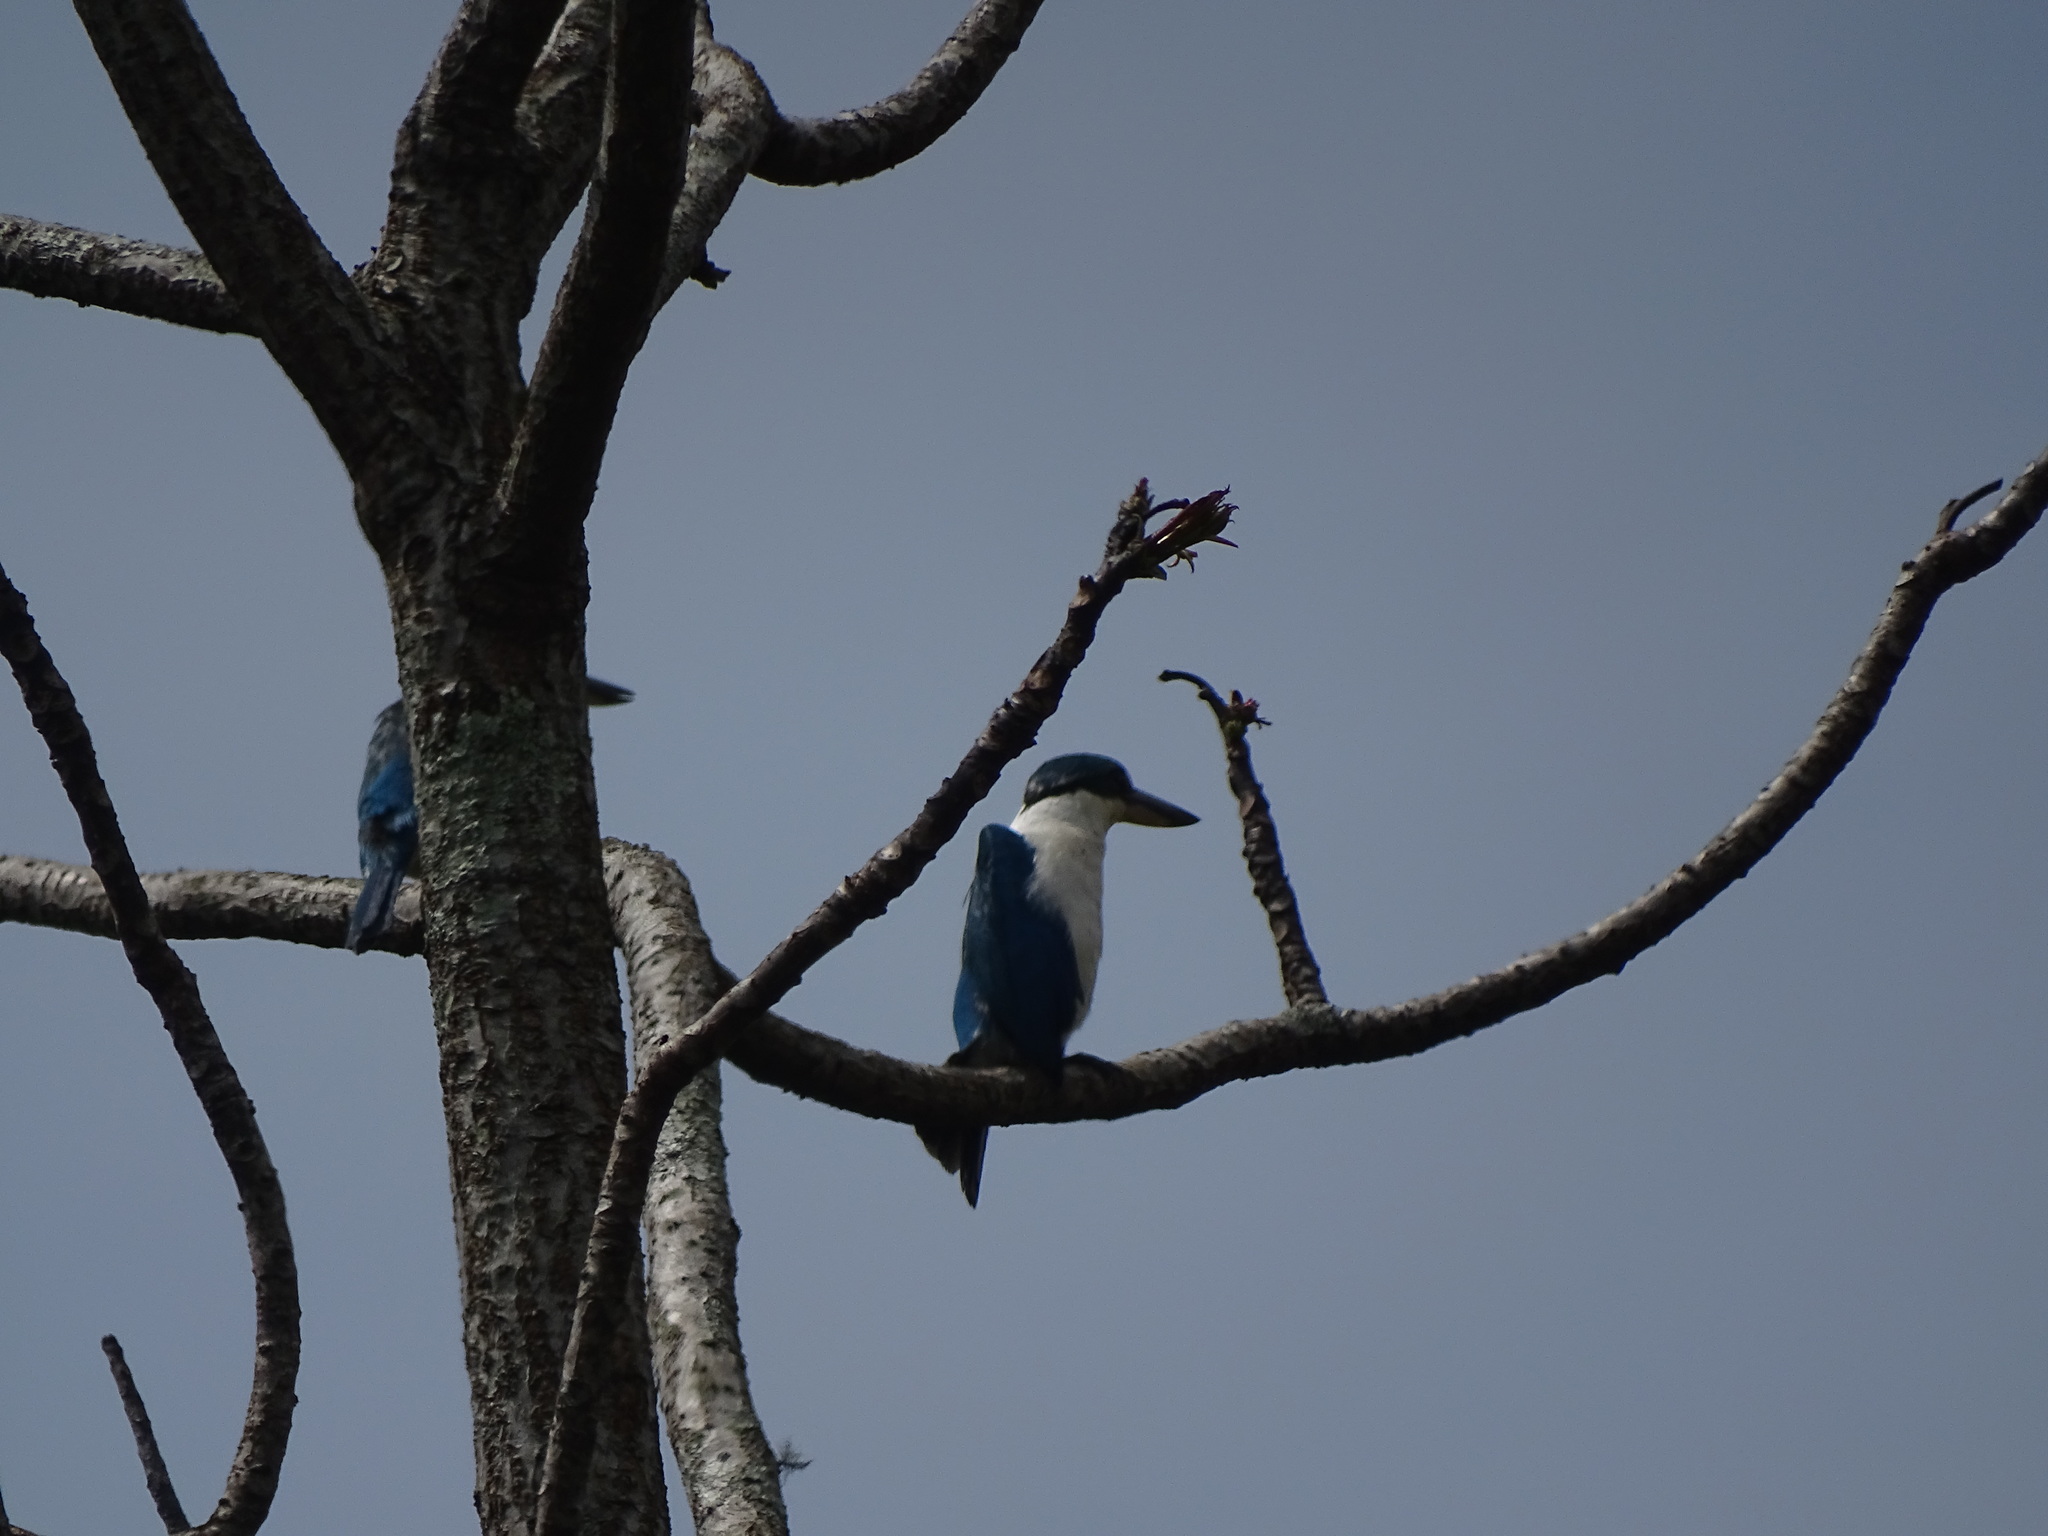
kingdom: Animalia
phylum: Chordata
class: Aves
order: Coraciiformes
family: Alcedinidae
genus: Todiramphus
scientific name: Todiramphus chloris
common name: Collared kingfisher
